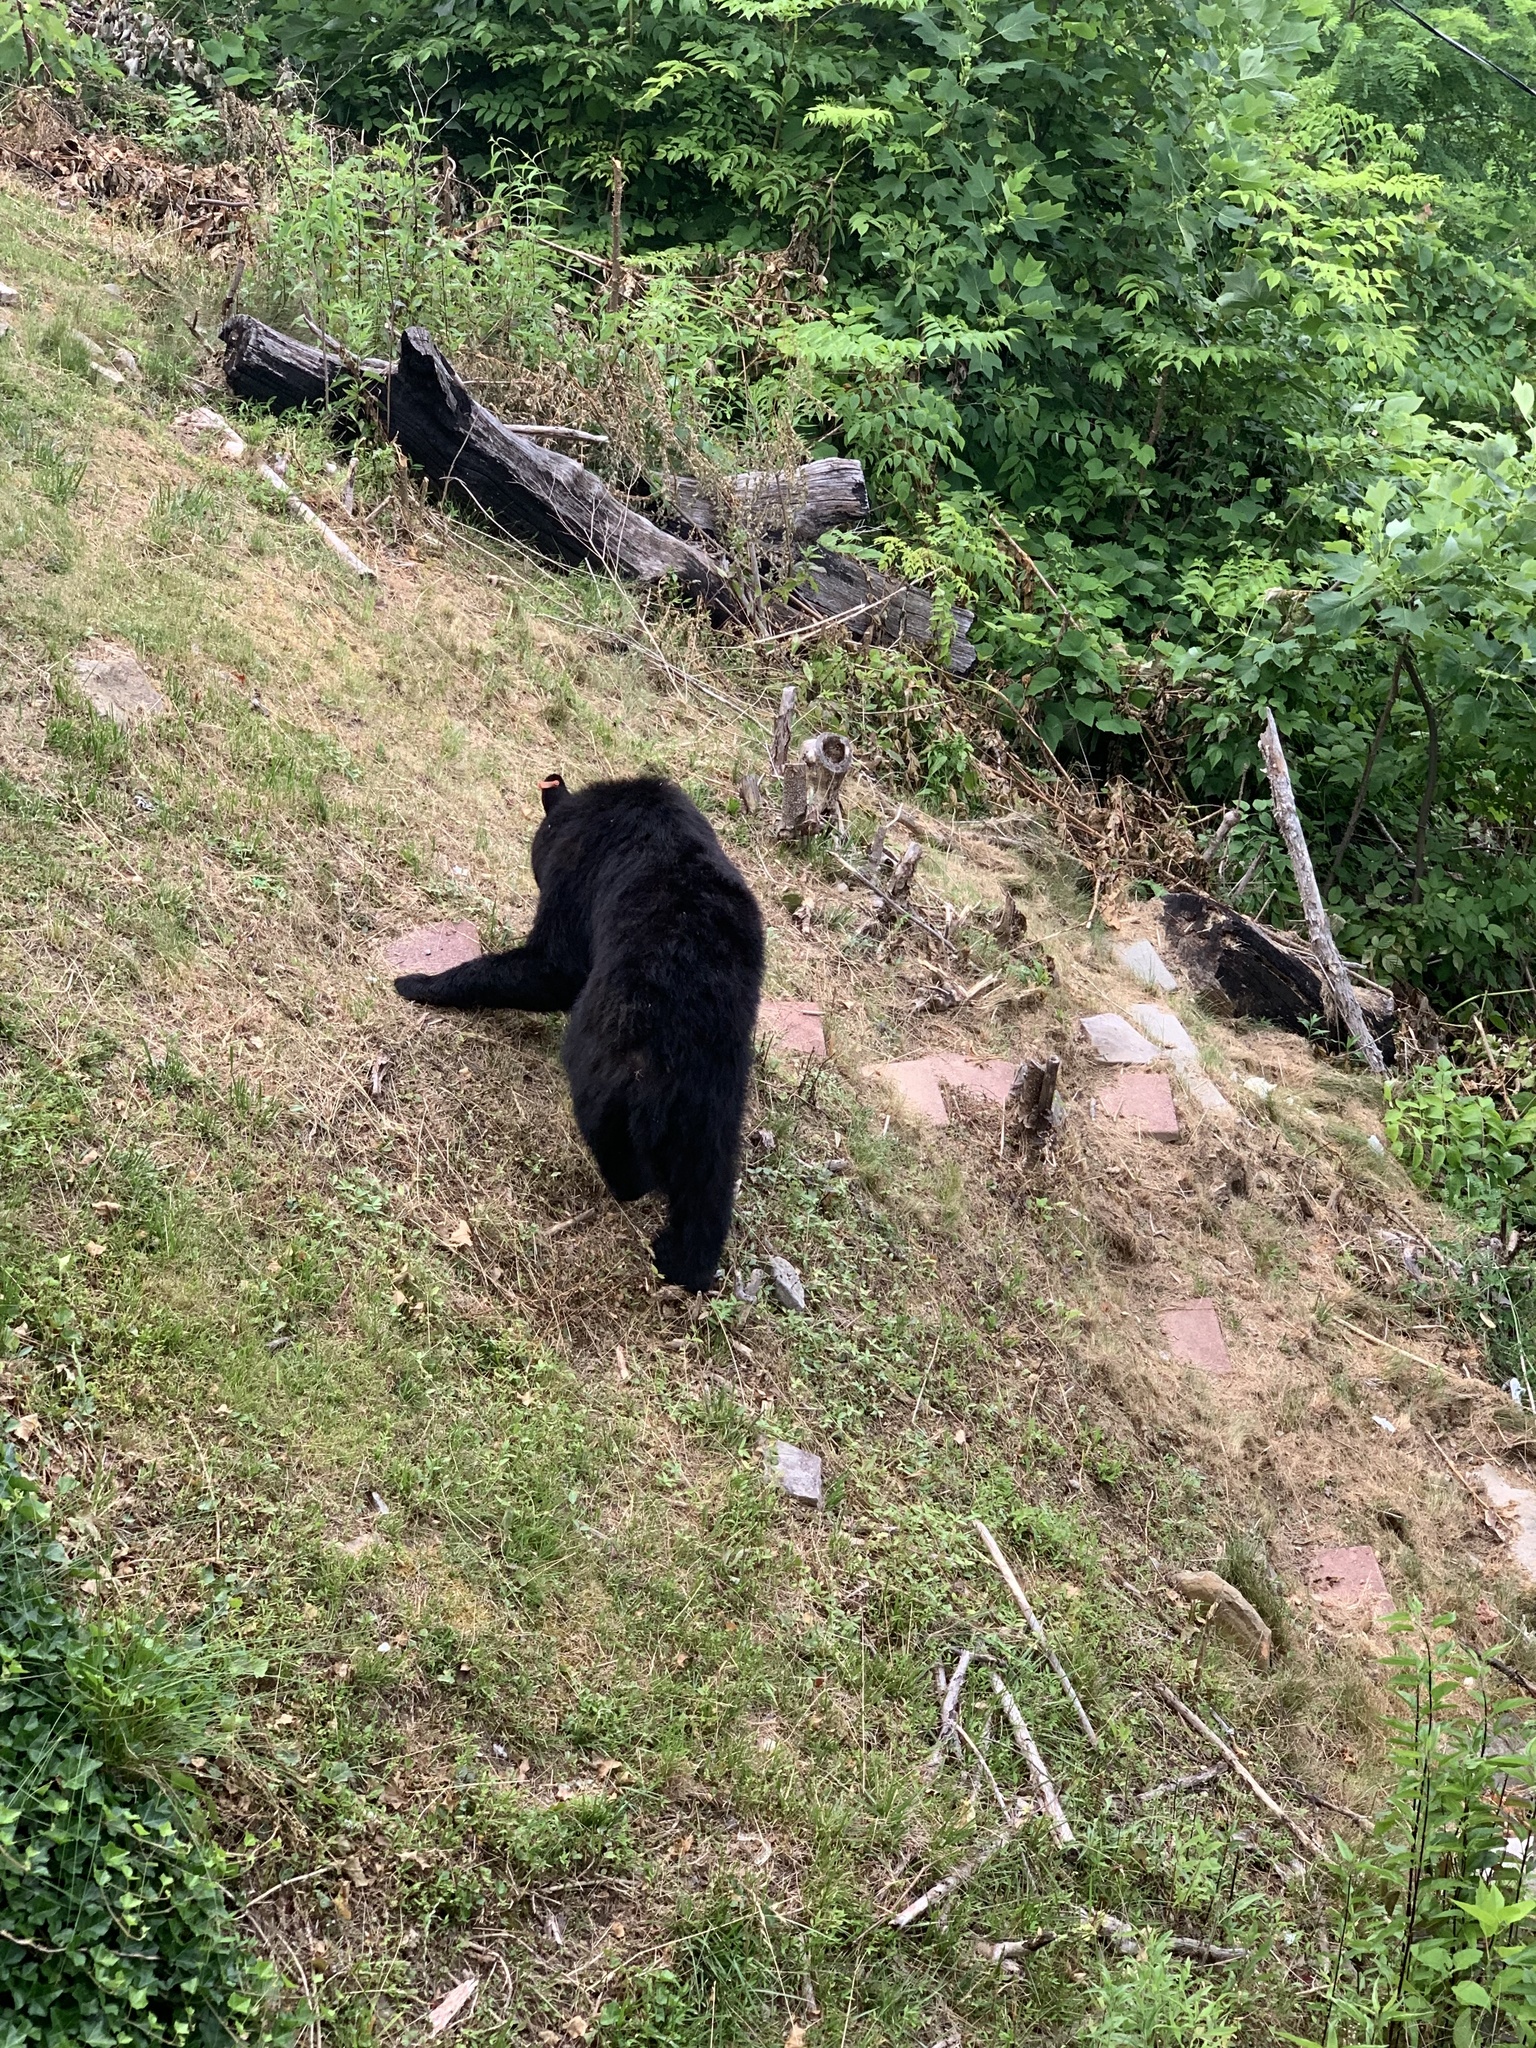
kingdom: Animalia
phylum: Chordata
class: Mammalia
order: Carnivora
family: Ursidae
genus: Ursus
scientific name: Ursus americanus
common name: American black bear
